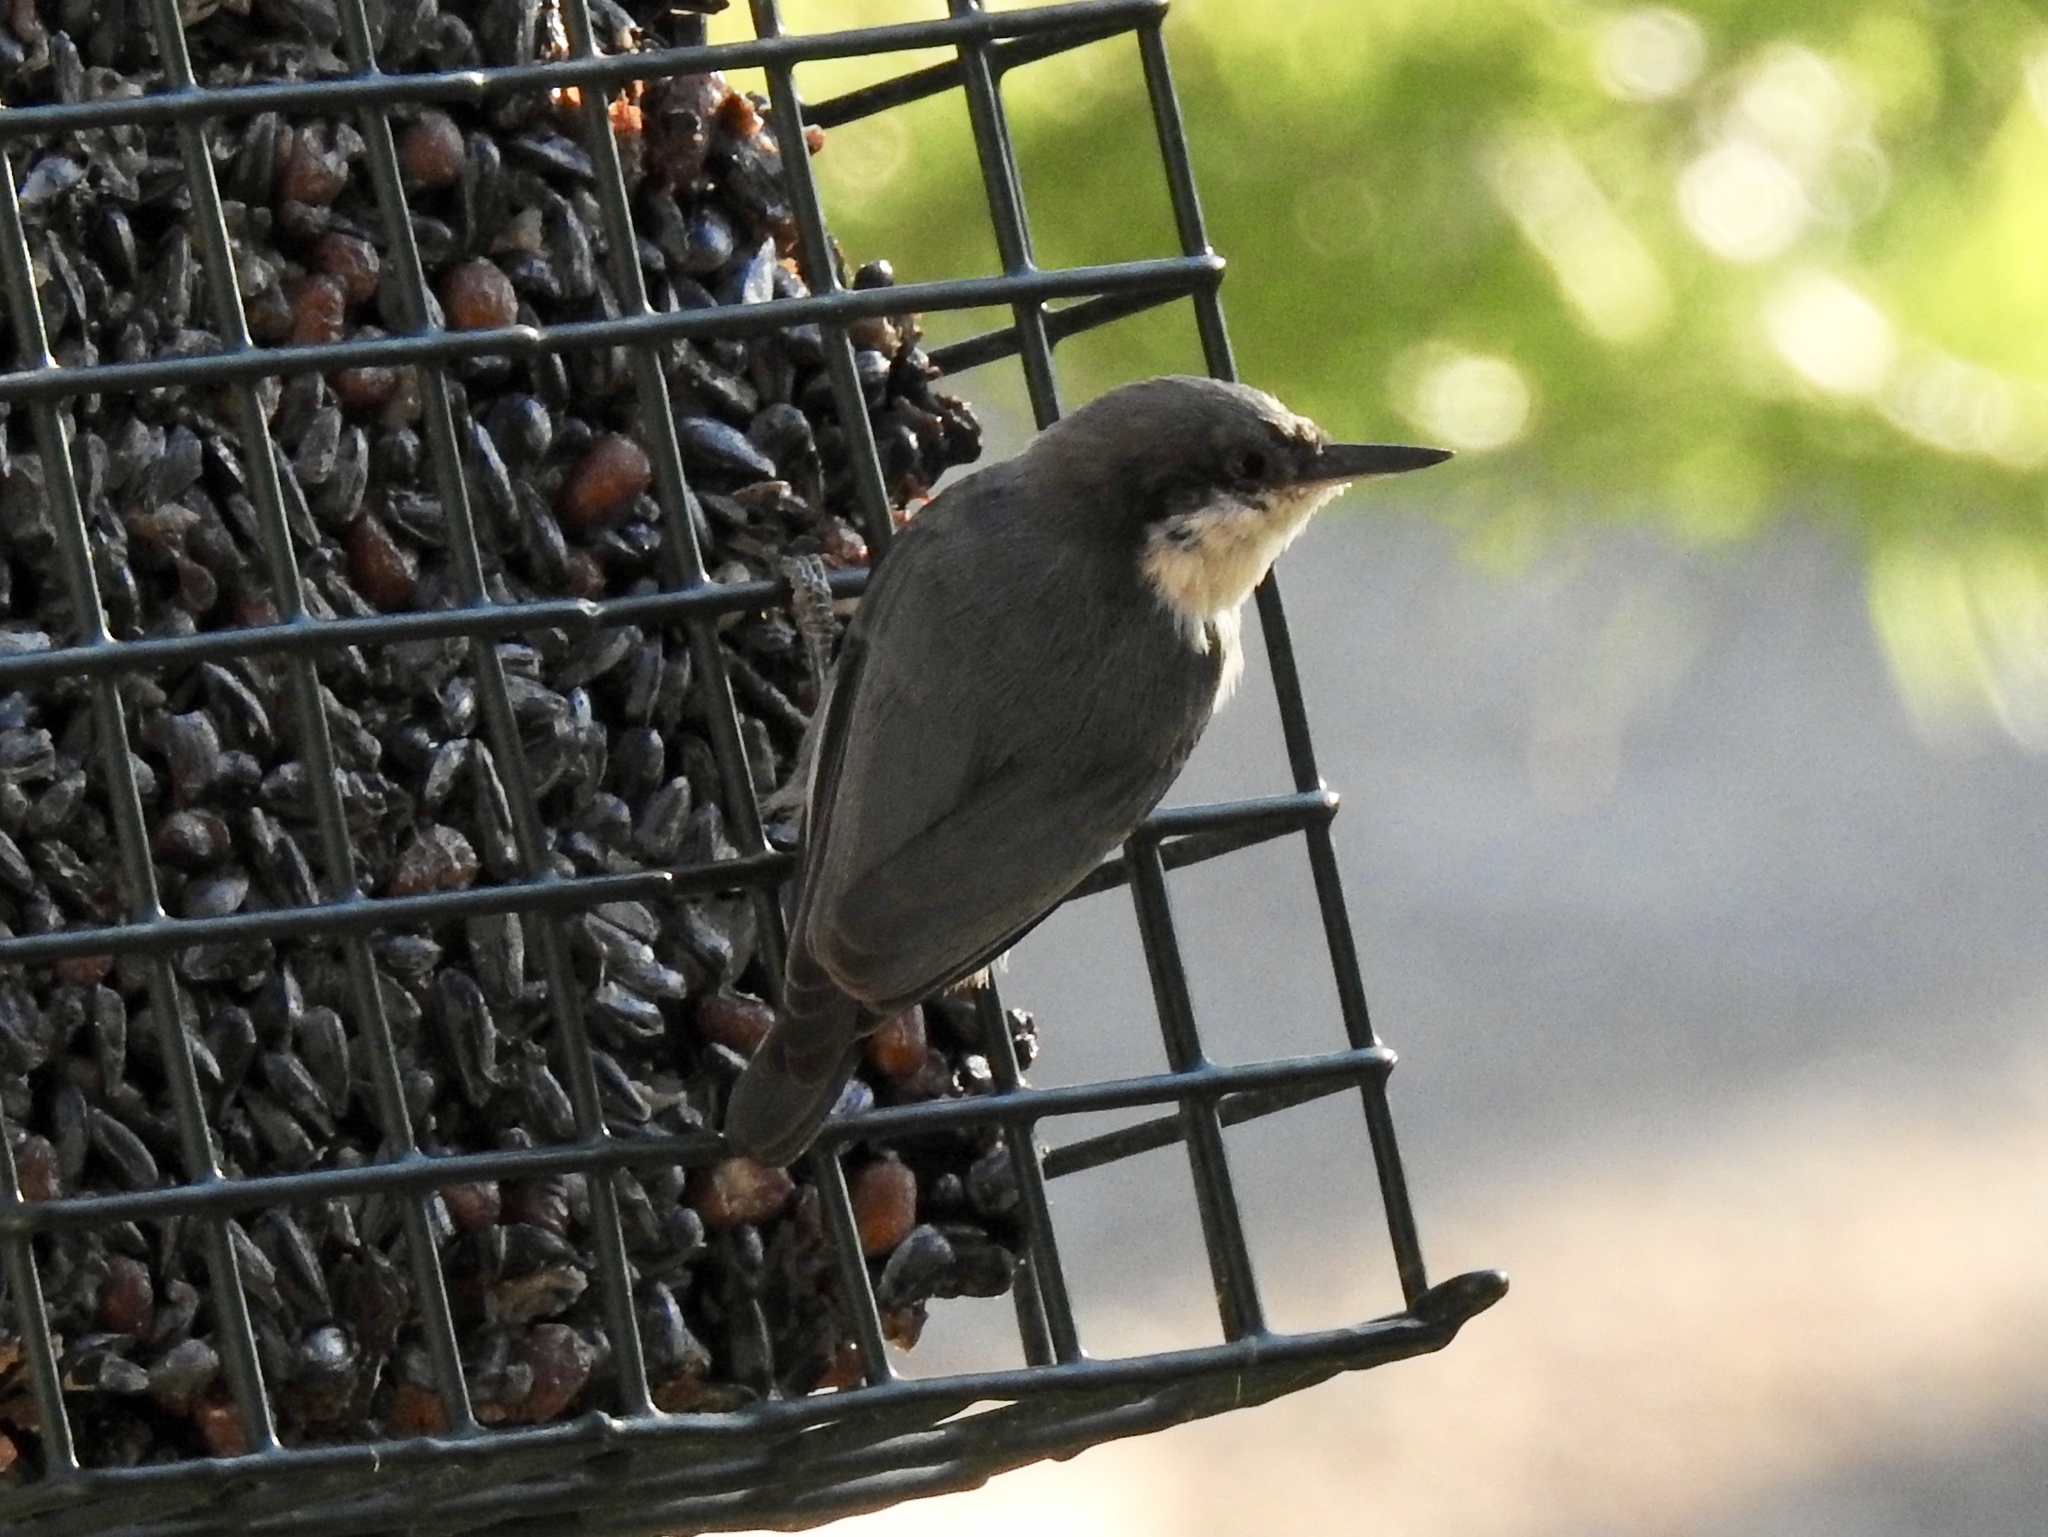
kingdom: Animalia
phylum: Chordata
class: Aves
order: Passeriformes
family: Sittidae
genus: Sitta
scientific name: Sitta pygmaea
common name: Pygmy nuthatch
